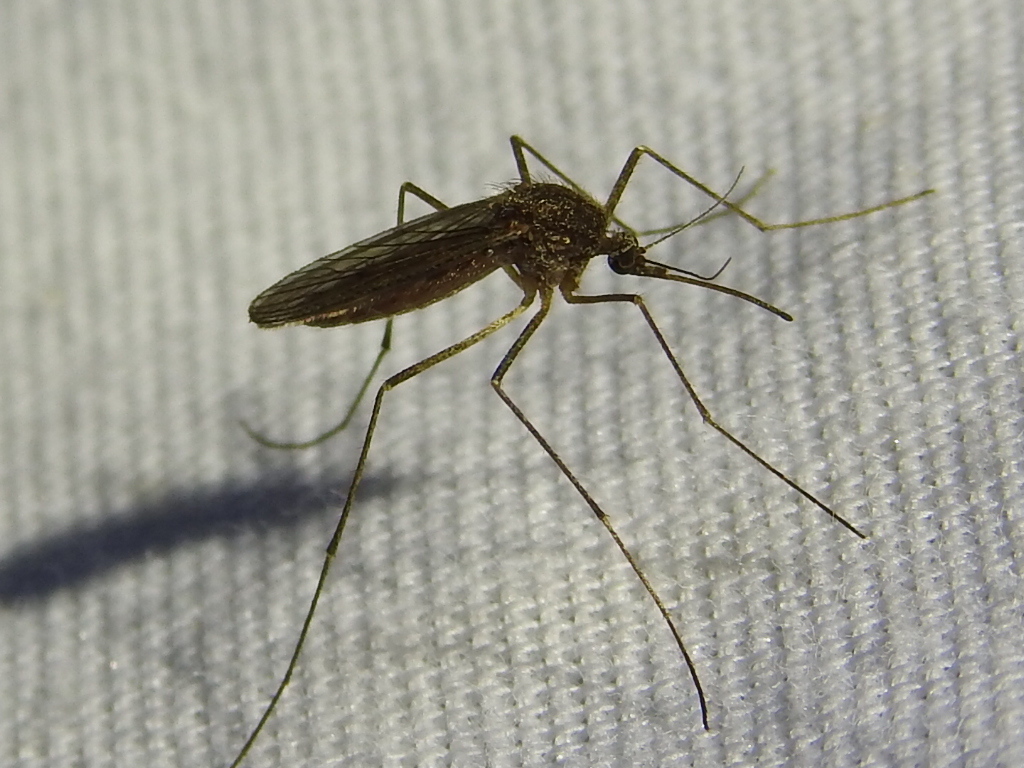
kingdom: Animalia
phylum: Arthropoda
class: Insecta
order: Diptera
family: Culicidae
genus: Culiseta
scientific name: Culiseta inornata
